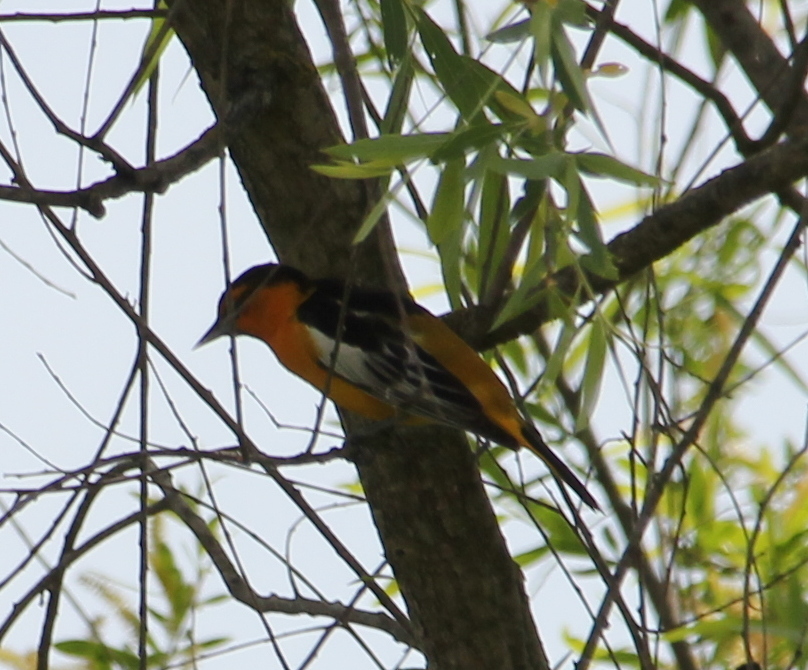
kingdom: Animalia
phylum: Chordata
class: Aves
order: Passeriformes
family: Icteridae
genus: Icterus
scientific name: Icterus bullockii
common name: Bullock's oriole
